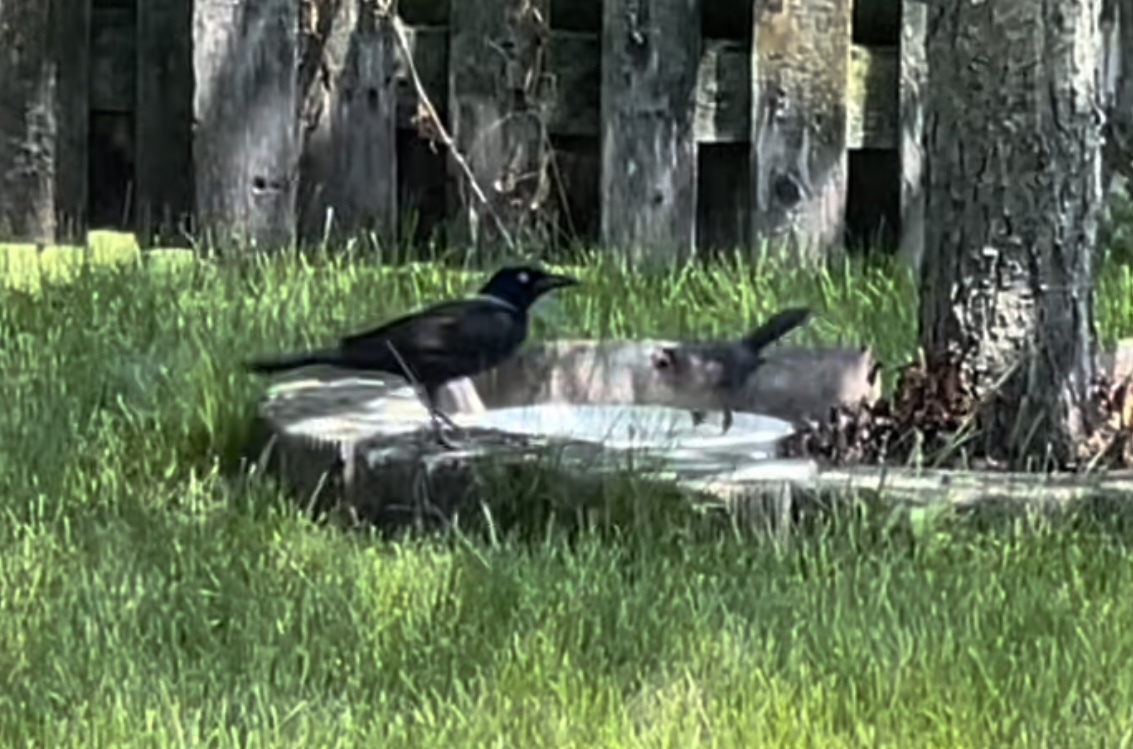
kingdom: Animalia
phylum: Chordata
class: Aves
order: Passeriformes
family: Icteridae
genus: Quiscalus
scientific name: Quiscalus quiscula
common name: Common grackle
